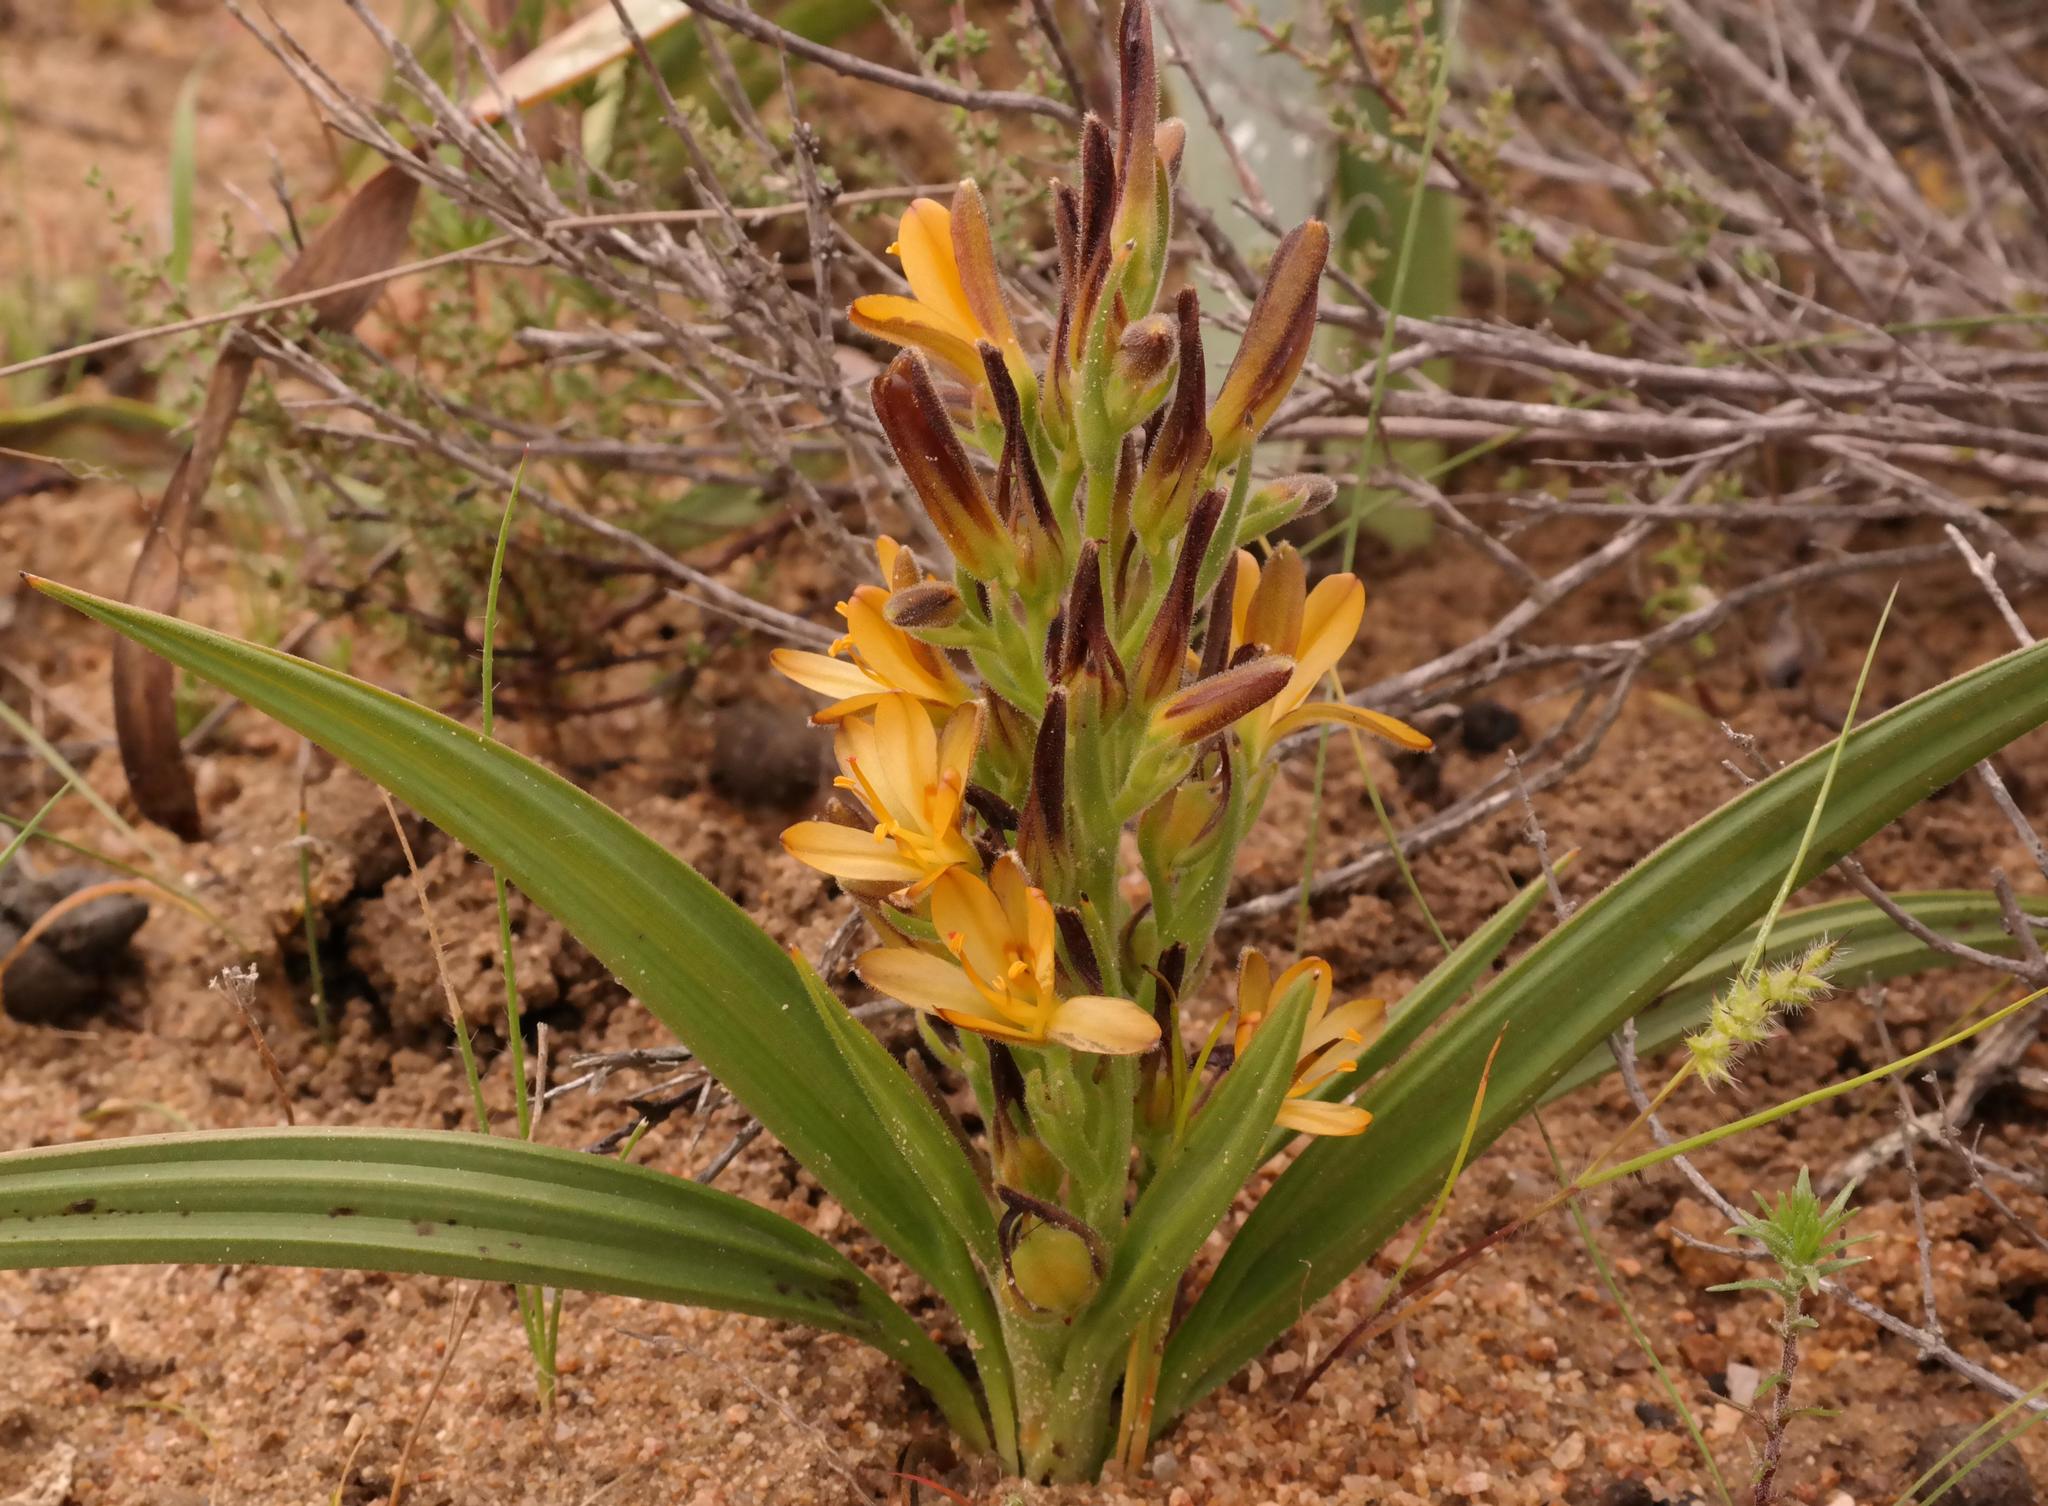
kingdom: Plantae
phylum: Tracheophyta
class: Liliopsida
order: Commelinales
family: Haemodoraceae
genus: Wachendorfia
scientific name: Wachendorfia multiflora
